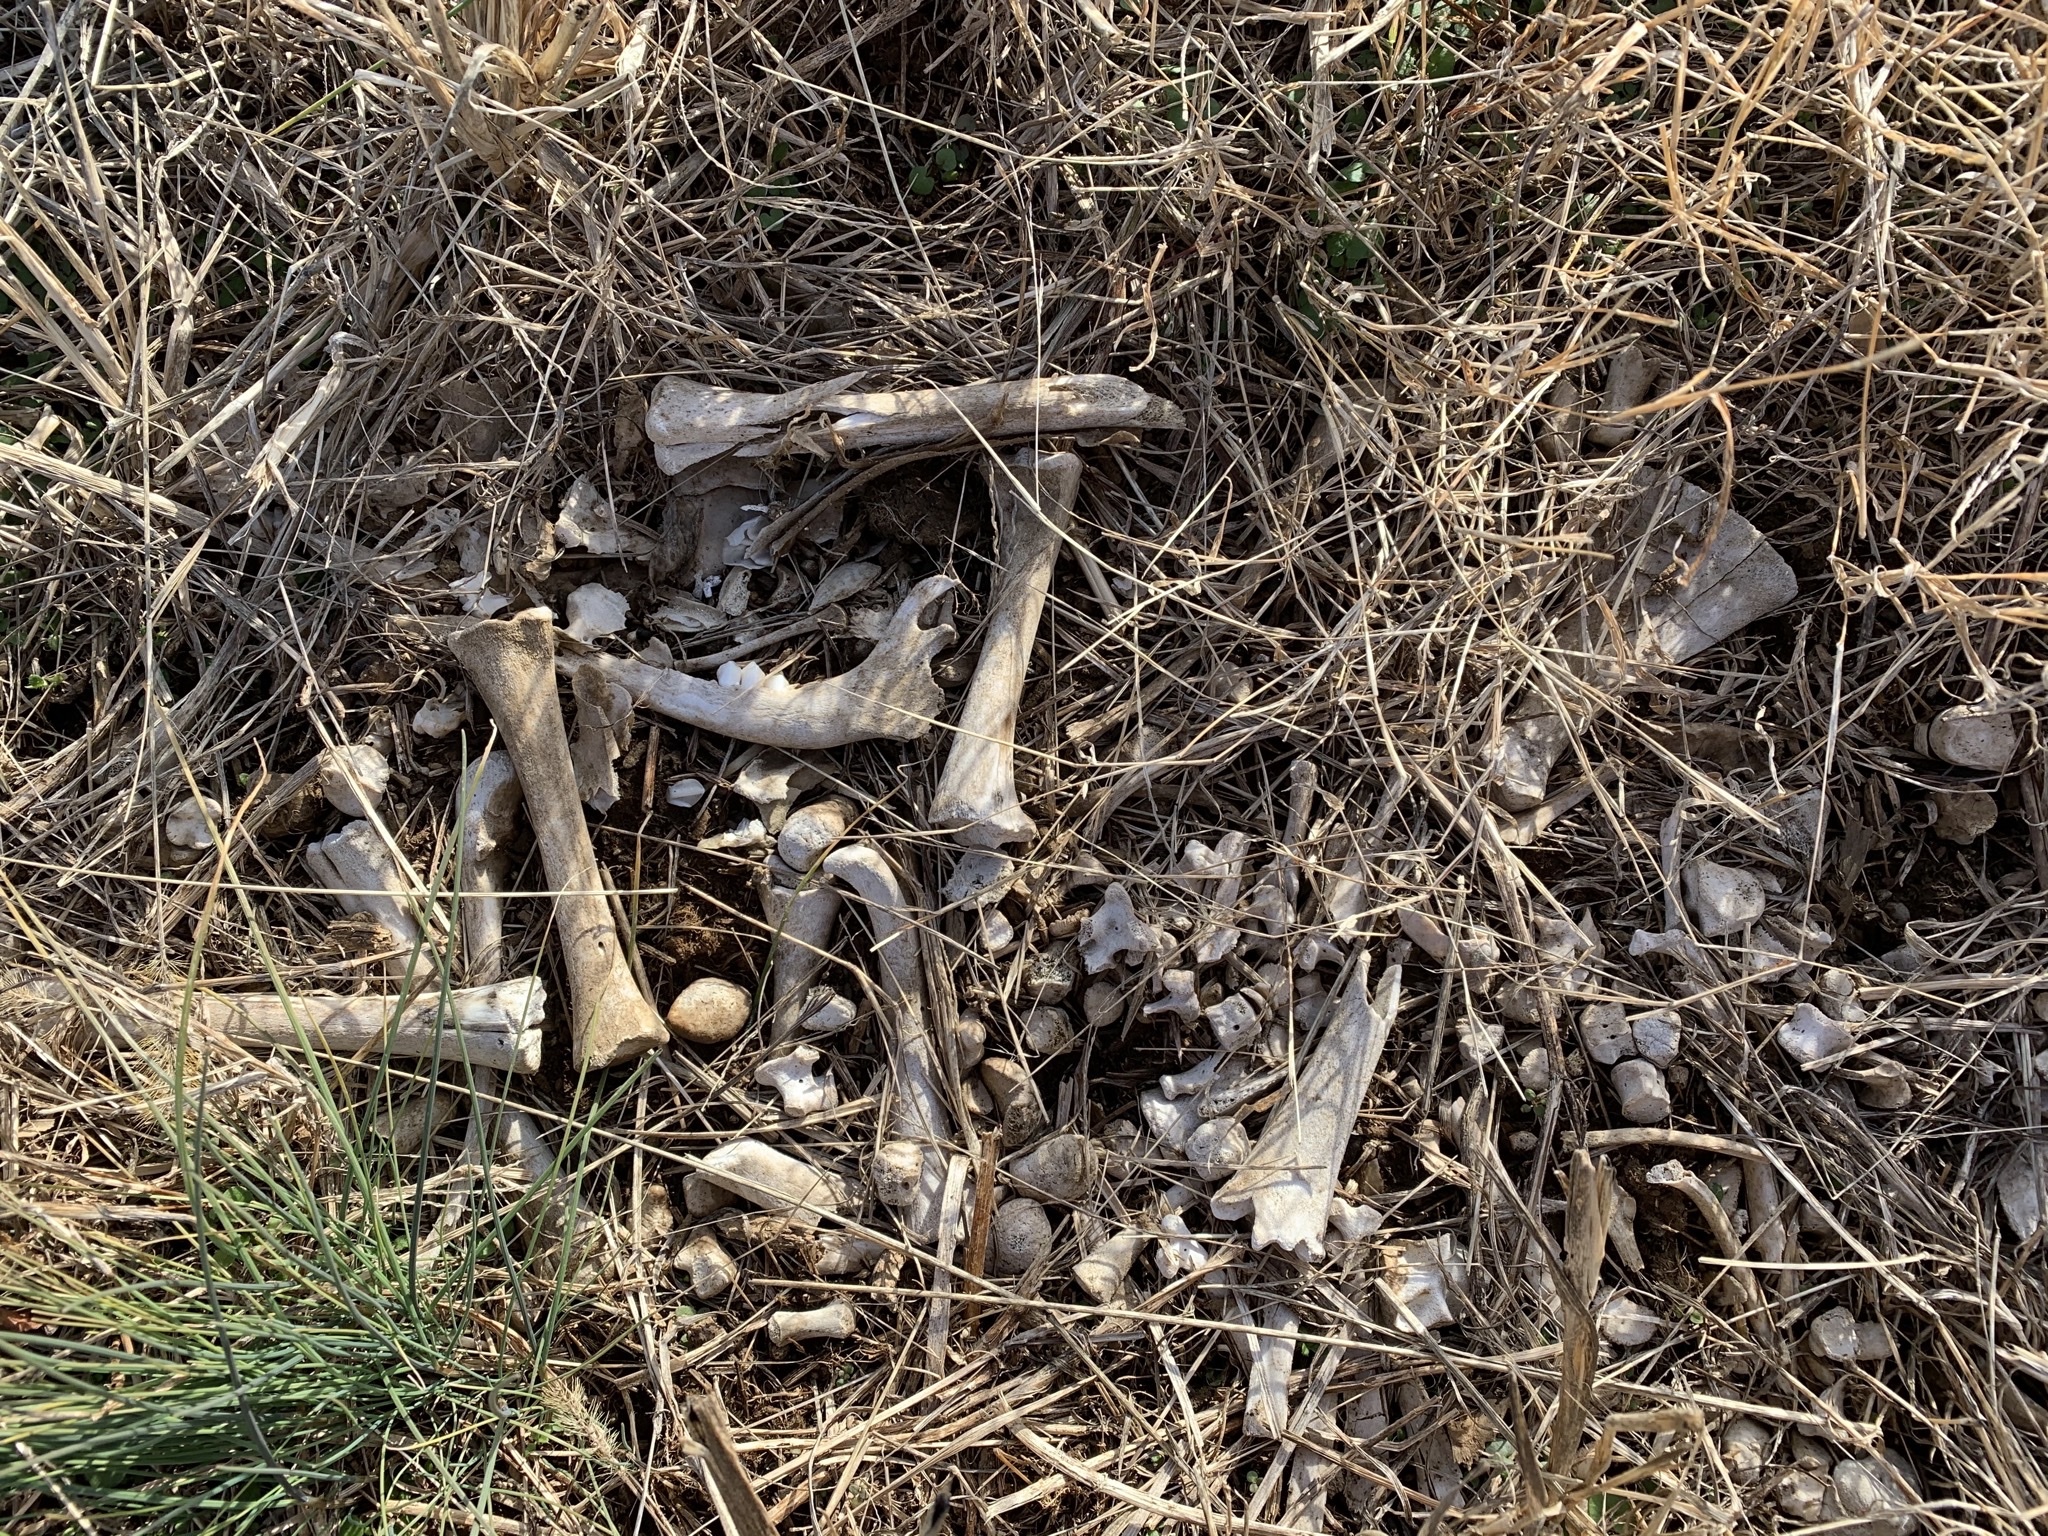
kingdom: Animalia
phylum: Chordata
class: Mammalia
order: Artiodactyla
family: Cervidae
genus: Odocoileus
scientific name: Odocoileus virginianus
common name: White-tailed deer
